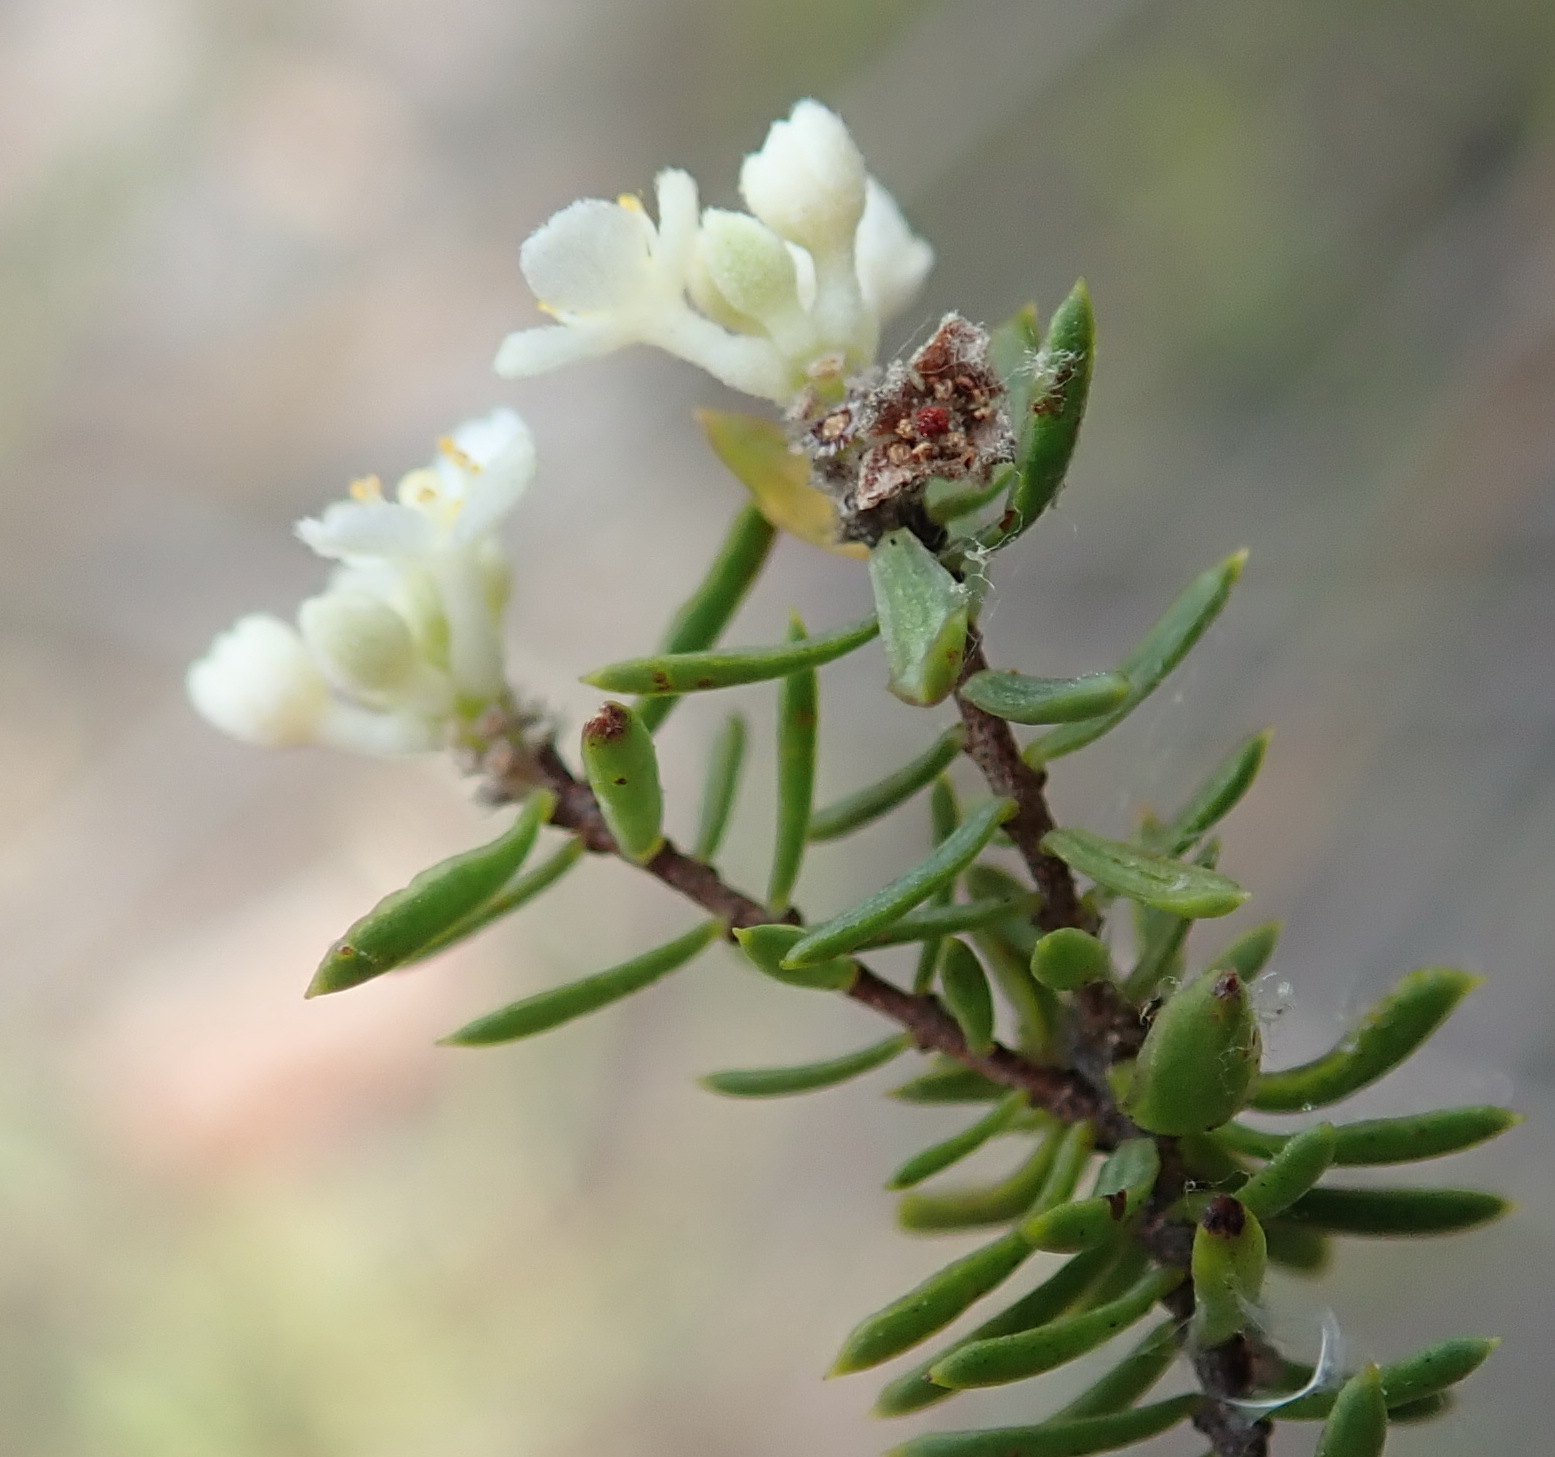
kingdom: Plantae
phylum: Tracheophyta
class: Magnoliopsida
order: Malvales
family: Thymelaeaceae
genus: Lachnaea
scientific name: Lachnaea diosmoides
